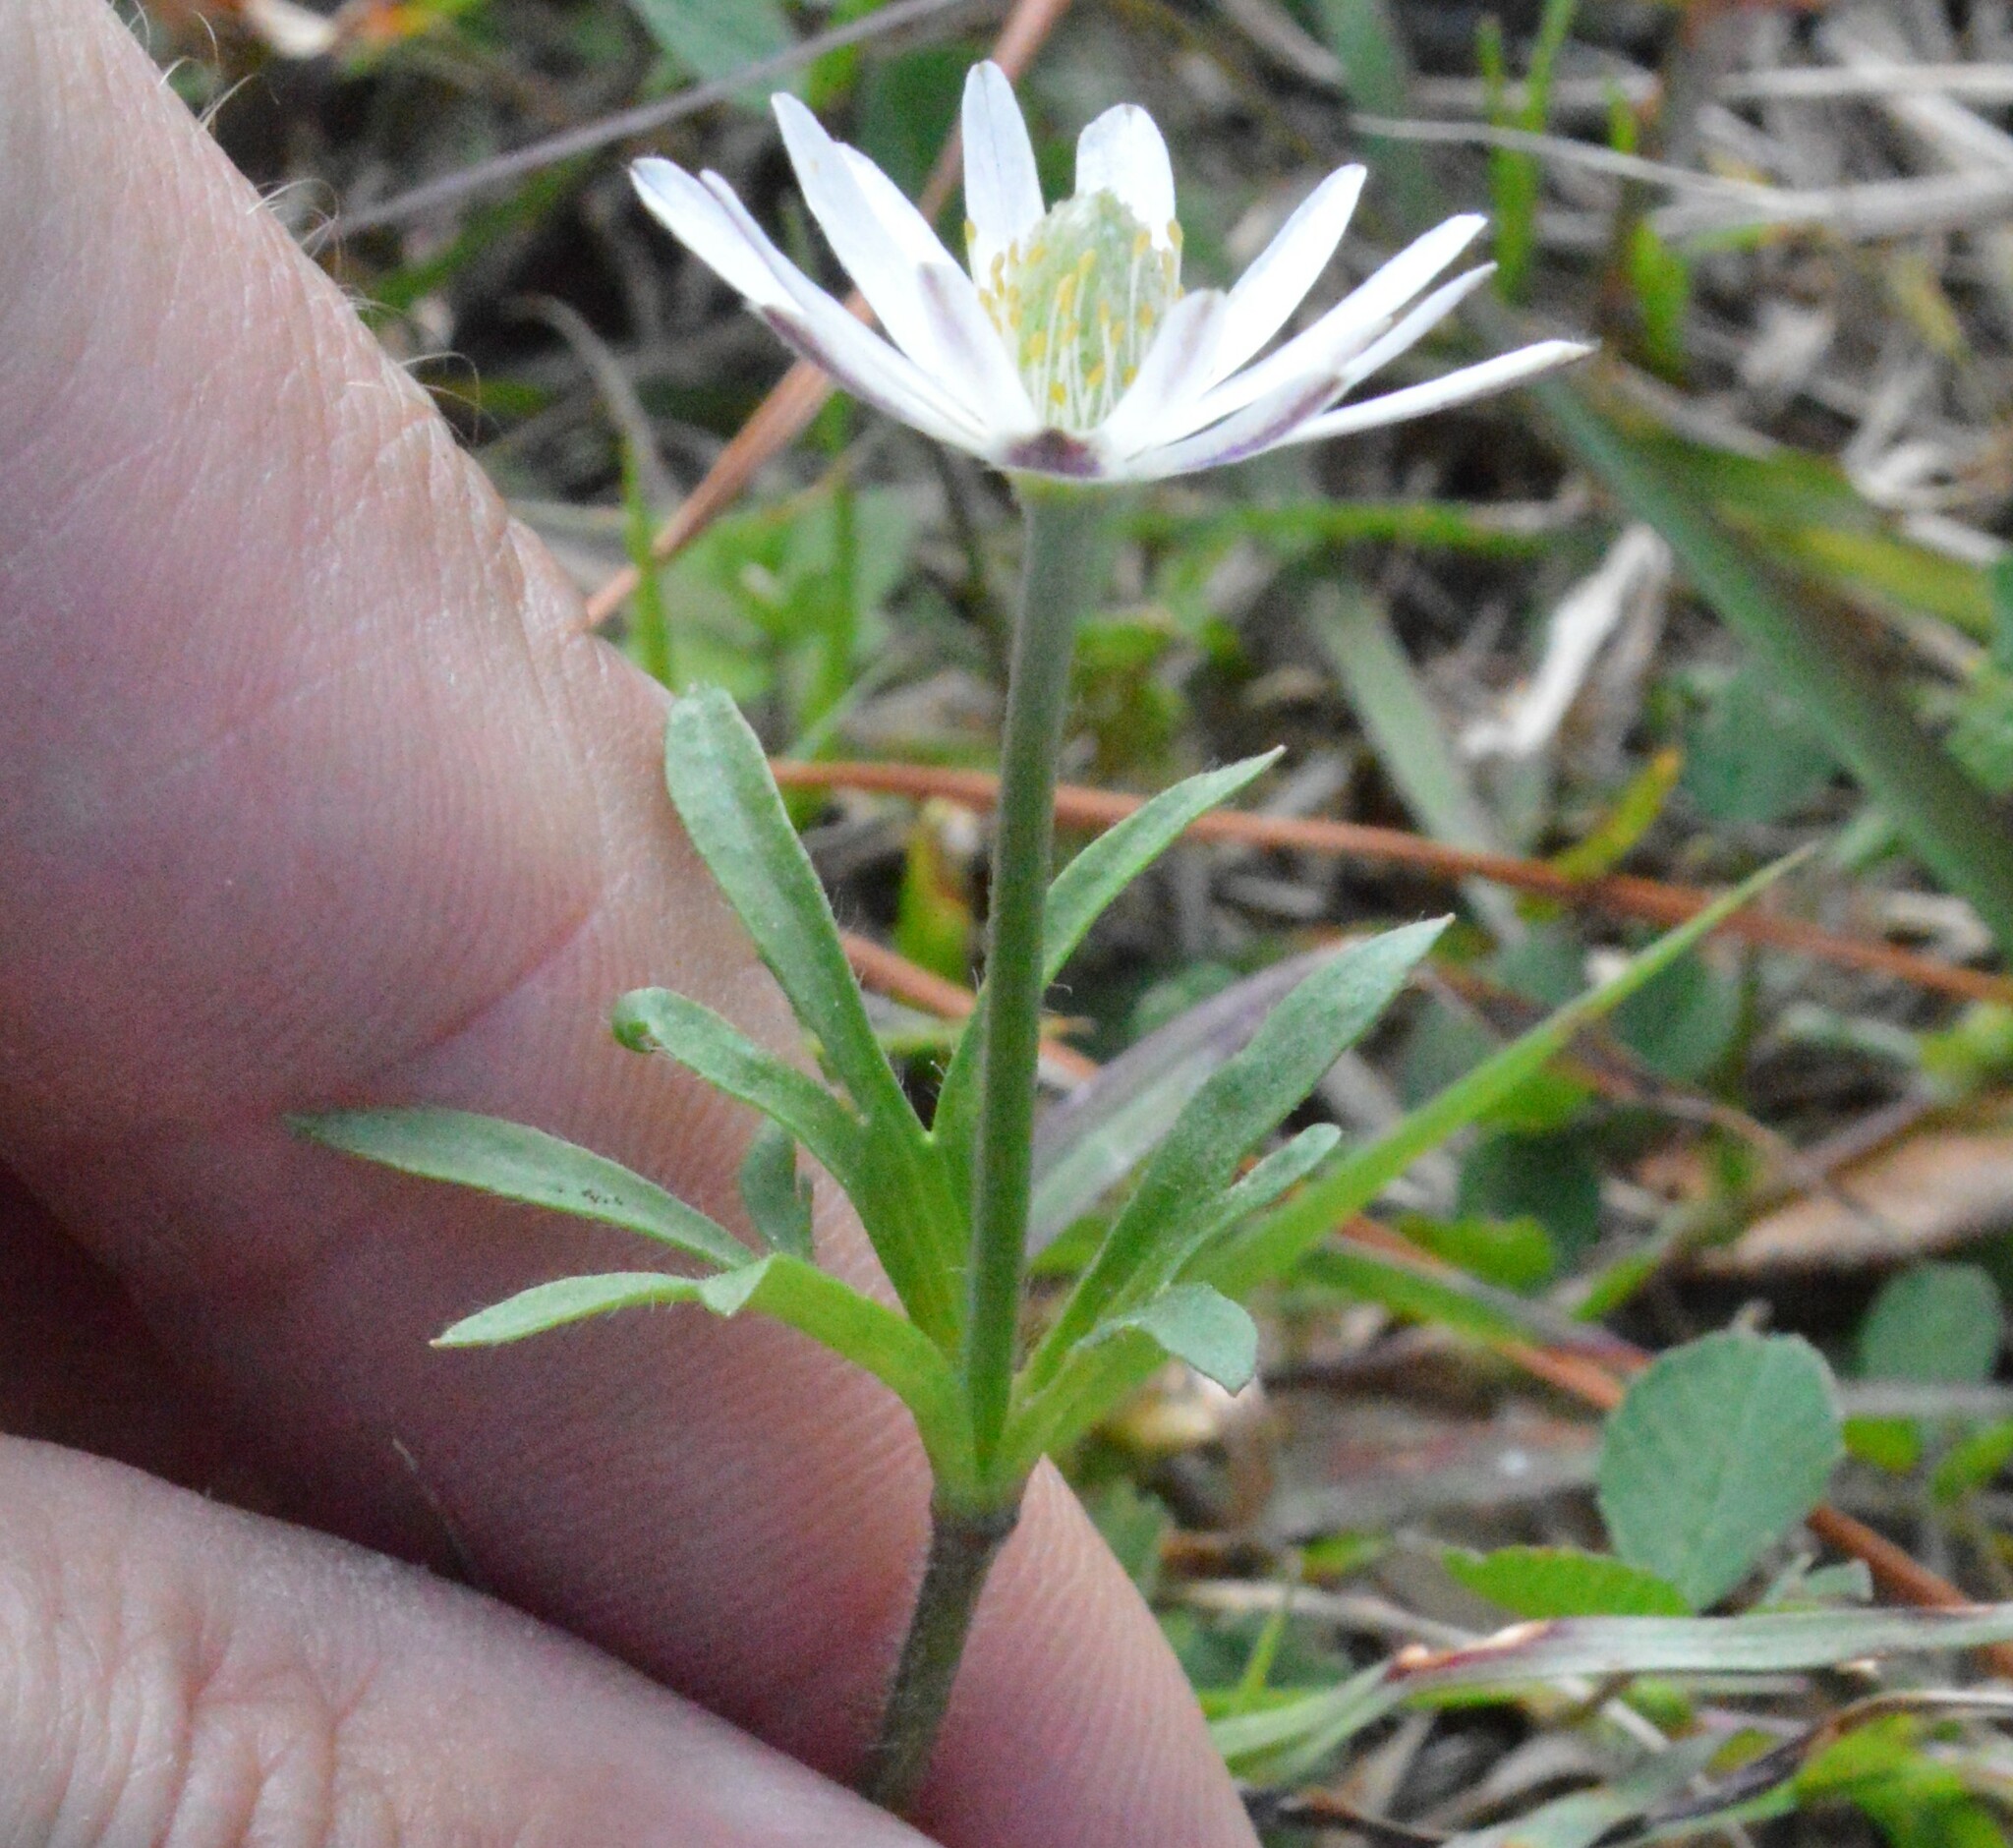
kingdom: Plantae
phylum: Tracheophyta
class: Magnoliopsida
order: Ranunculales
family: Ranunculaceae
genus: Anemone
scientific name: Anemone berlandieri
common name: Ten-petal anemone
